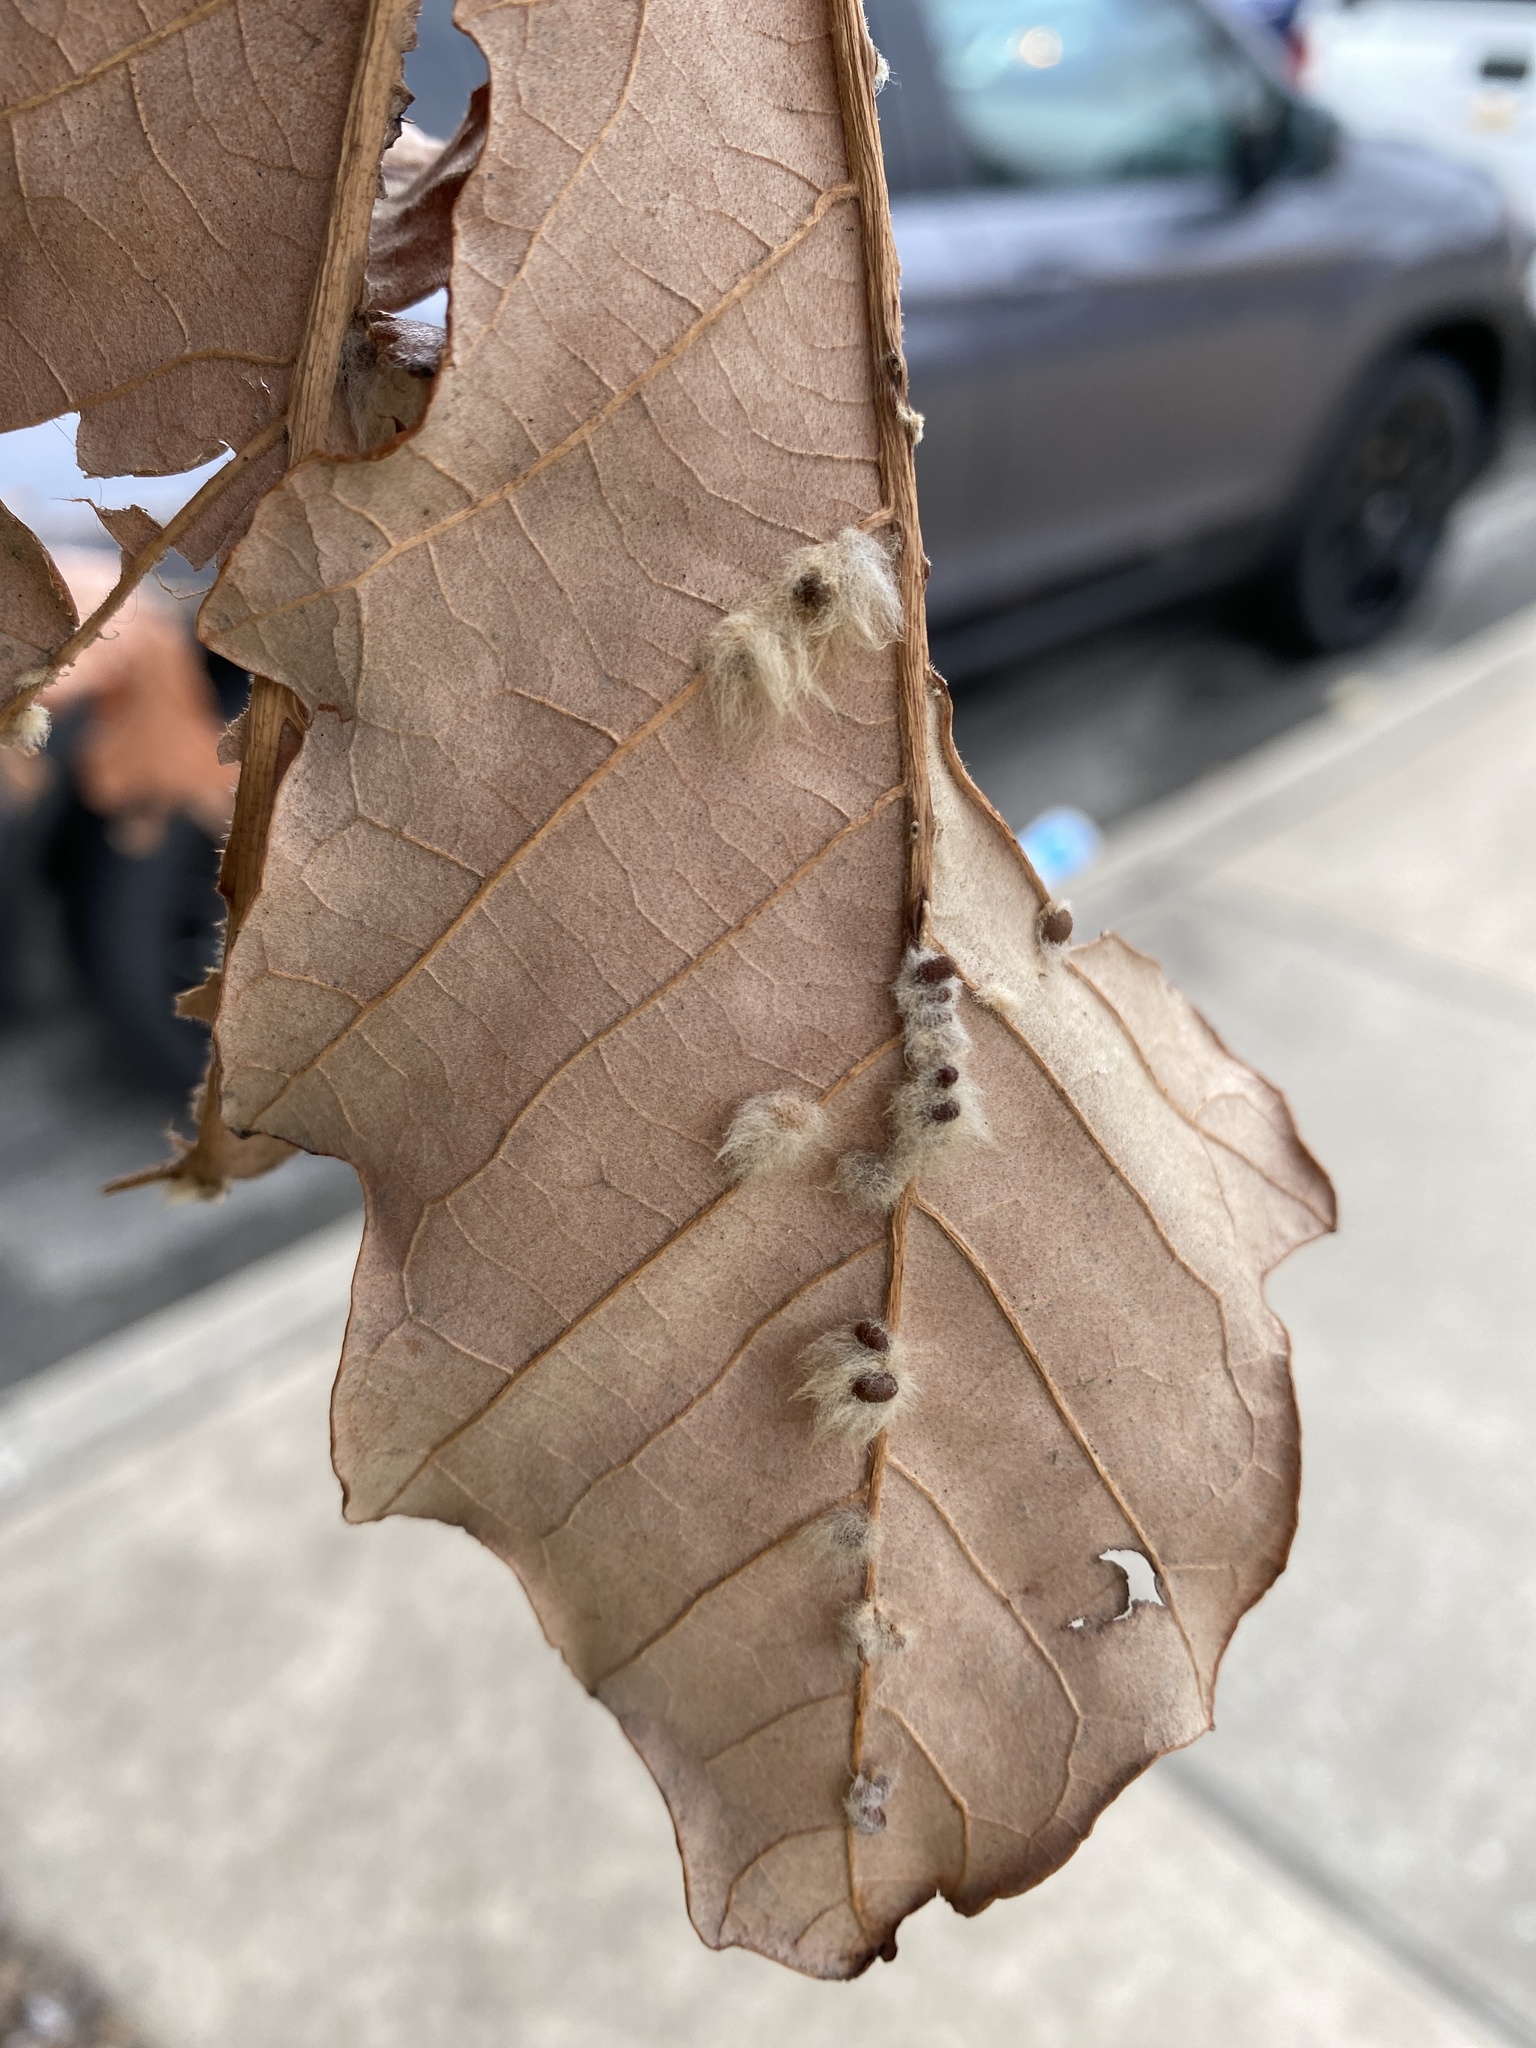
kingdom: Animalia
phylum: Arthropoda
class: Insecta
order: Hymenoptera
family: Cynipidae
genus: Andricus
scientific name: Andricus Druon ignotum
